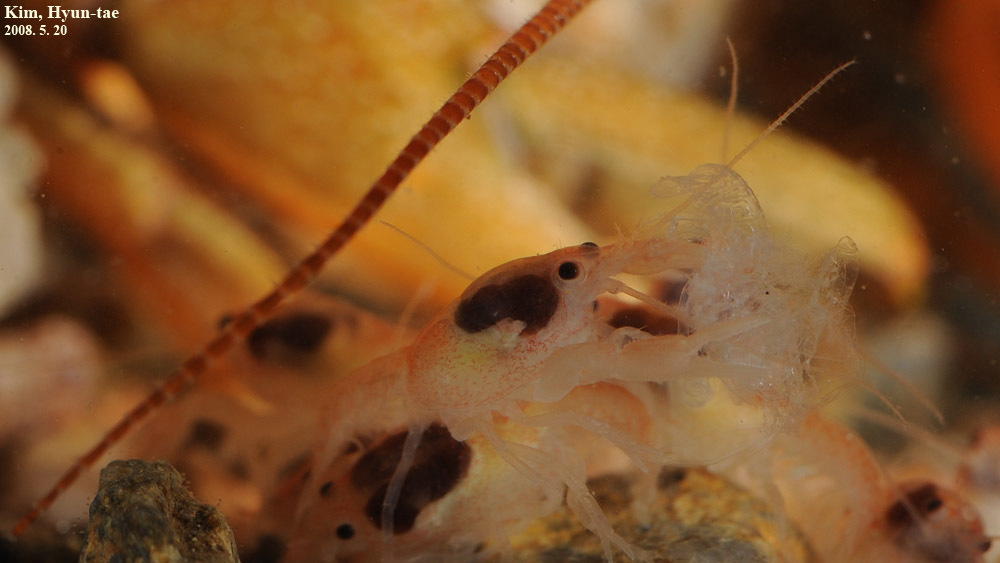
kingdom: Animalia
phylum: Arthropoda
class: Malacostraca
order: Decapoda
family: Cambaroididae
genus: Cambaroides
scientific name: Cambaroides similis
